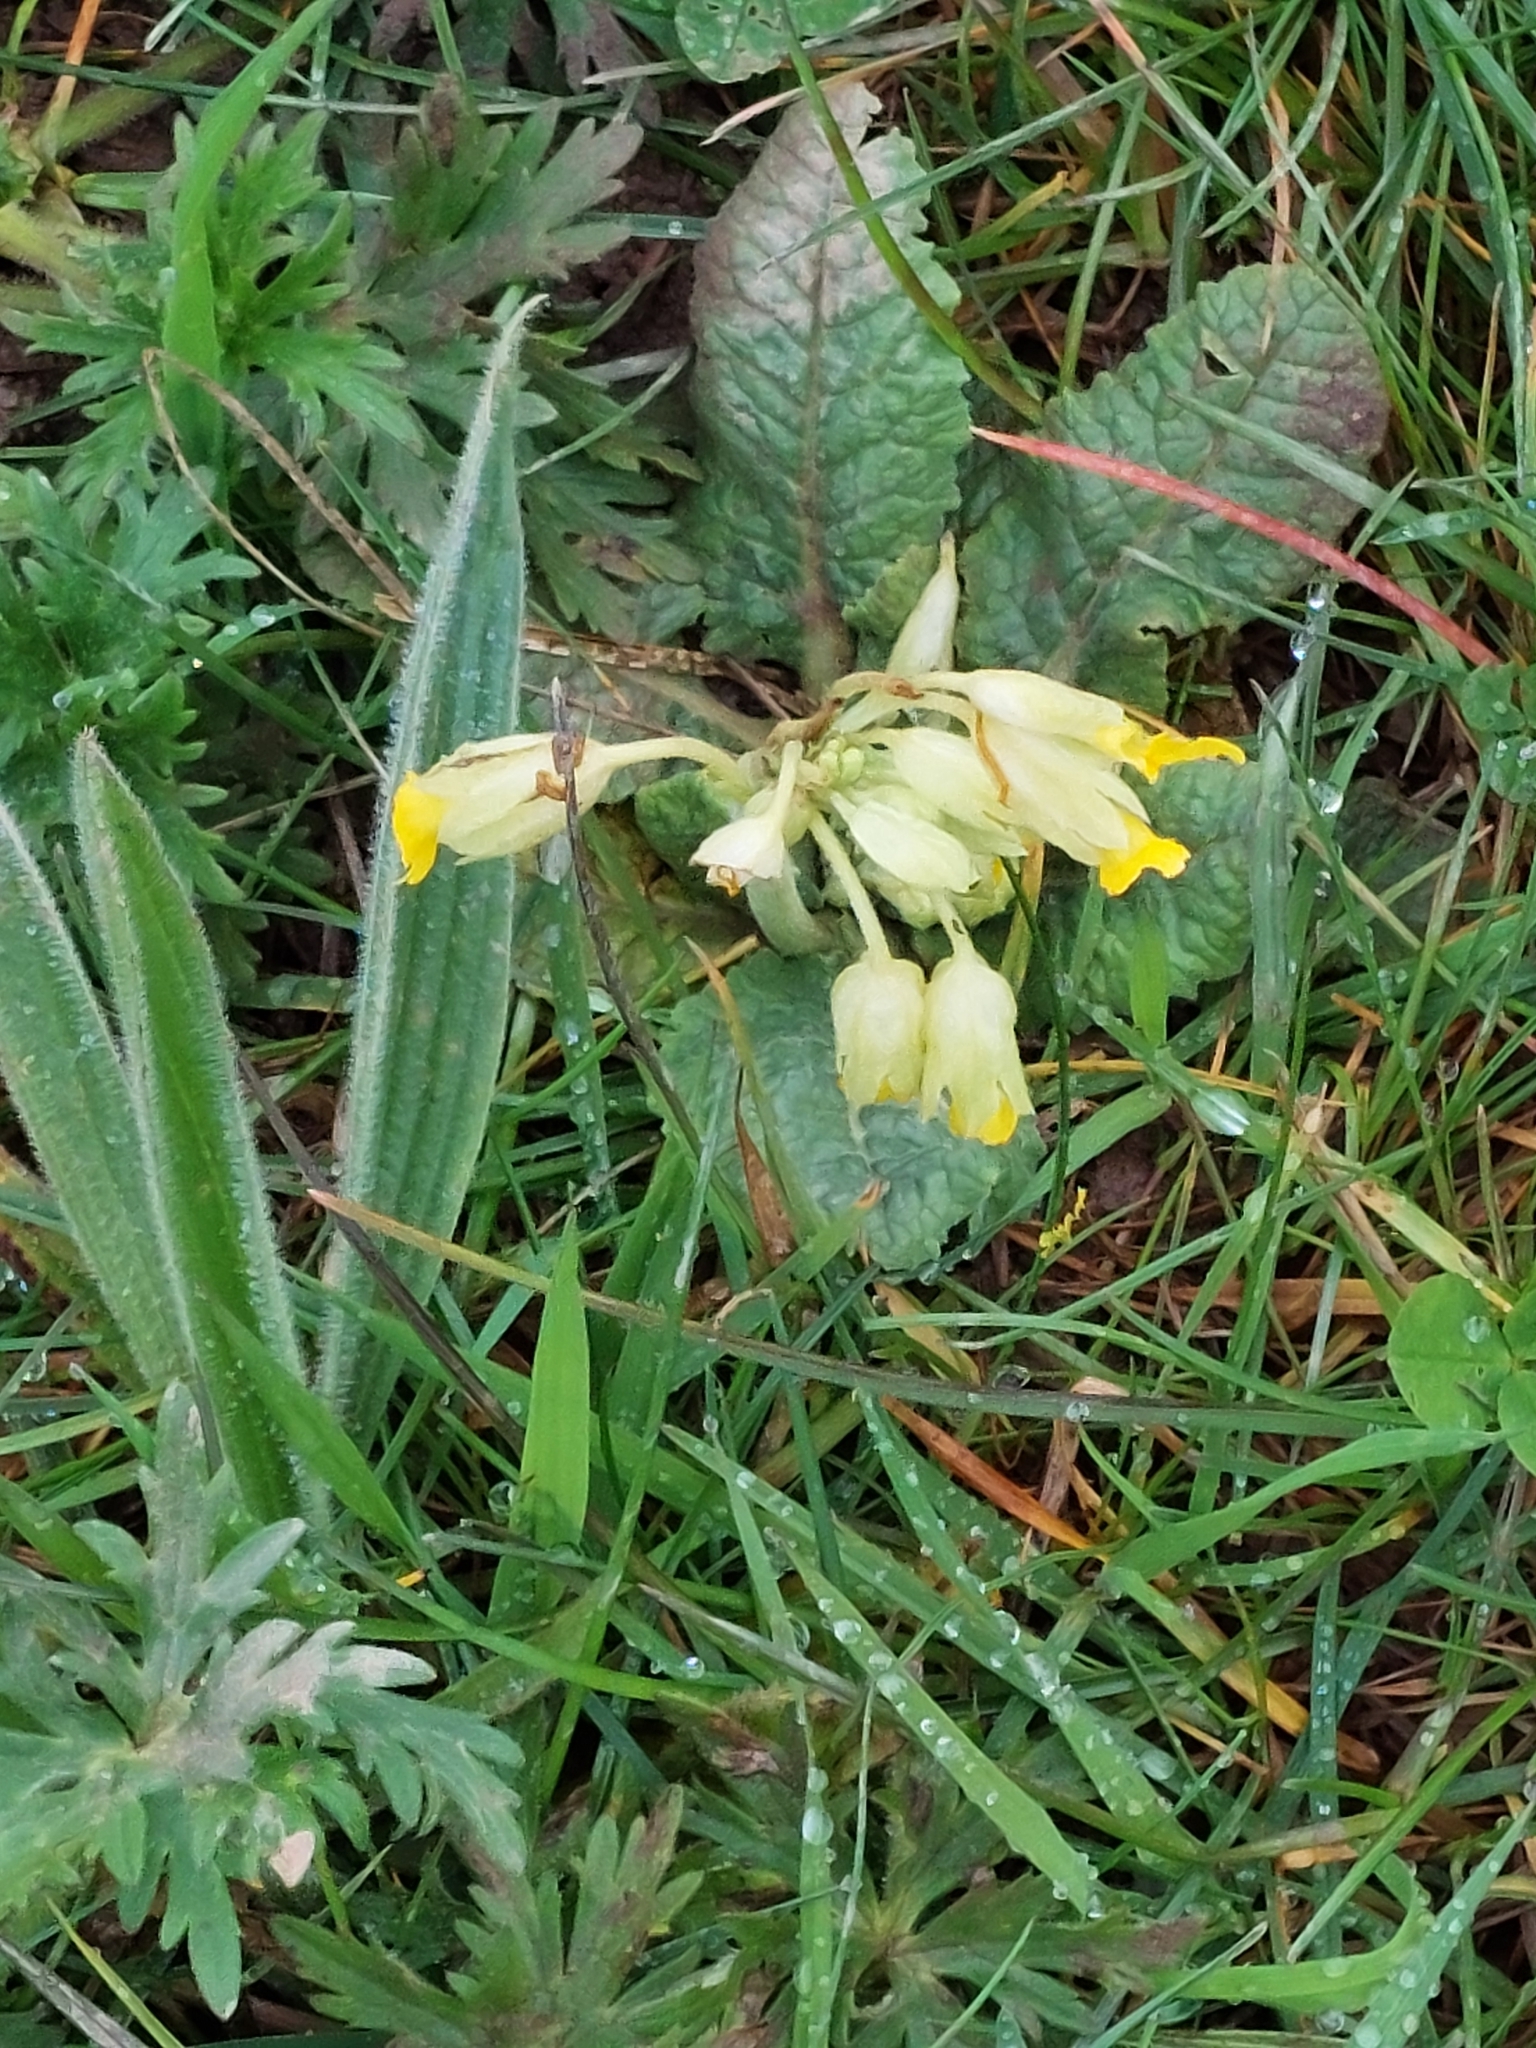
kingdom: Plantae
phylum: Tracheophyta
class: Magnoliopsida
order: Ericales
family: Primulaceae
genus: Primula
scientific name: Primula veris
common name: Cowslip
